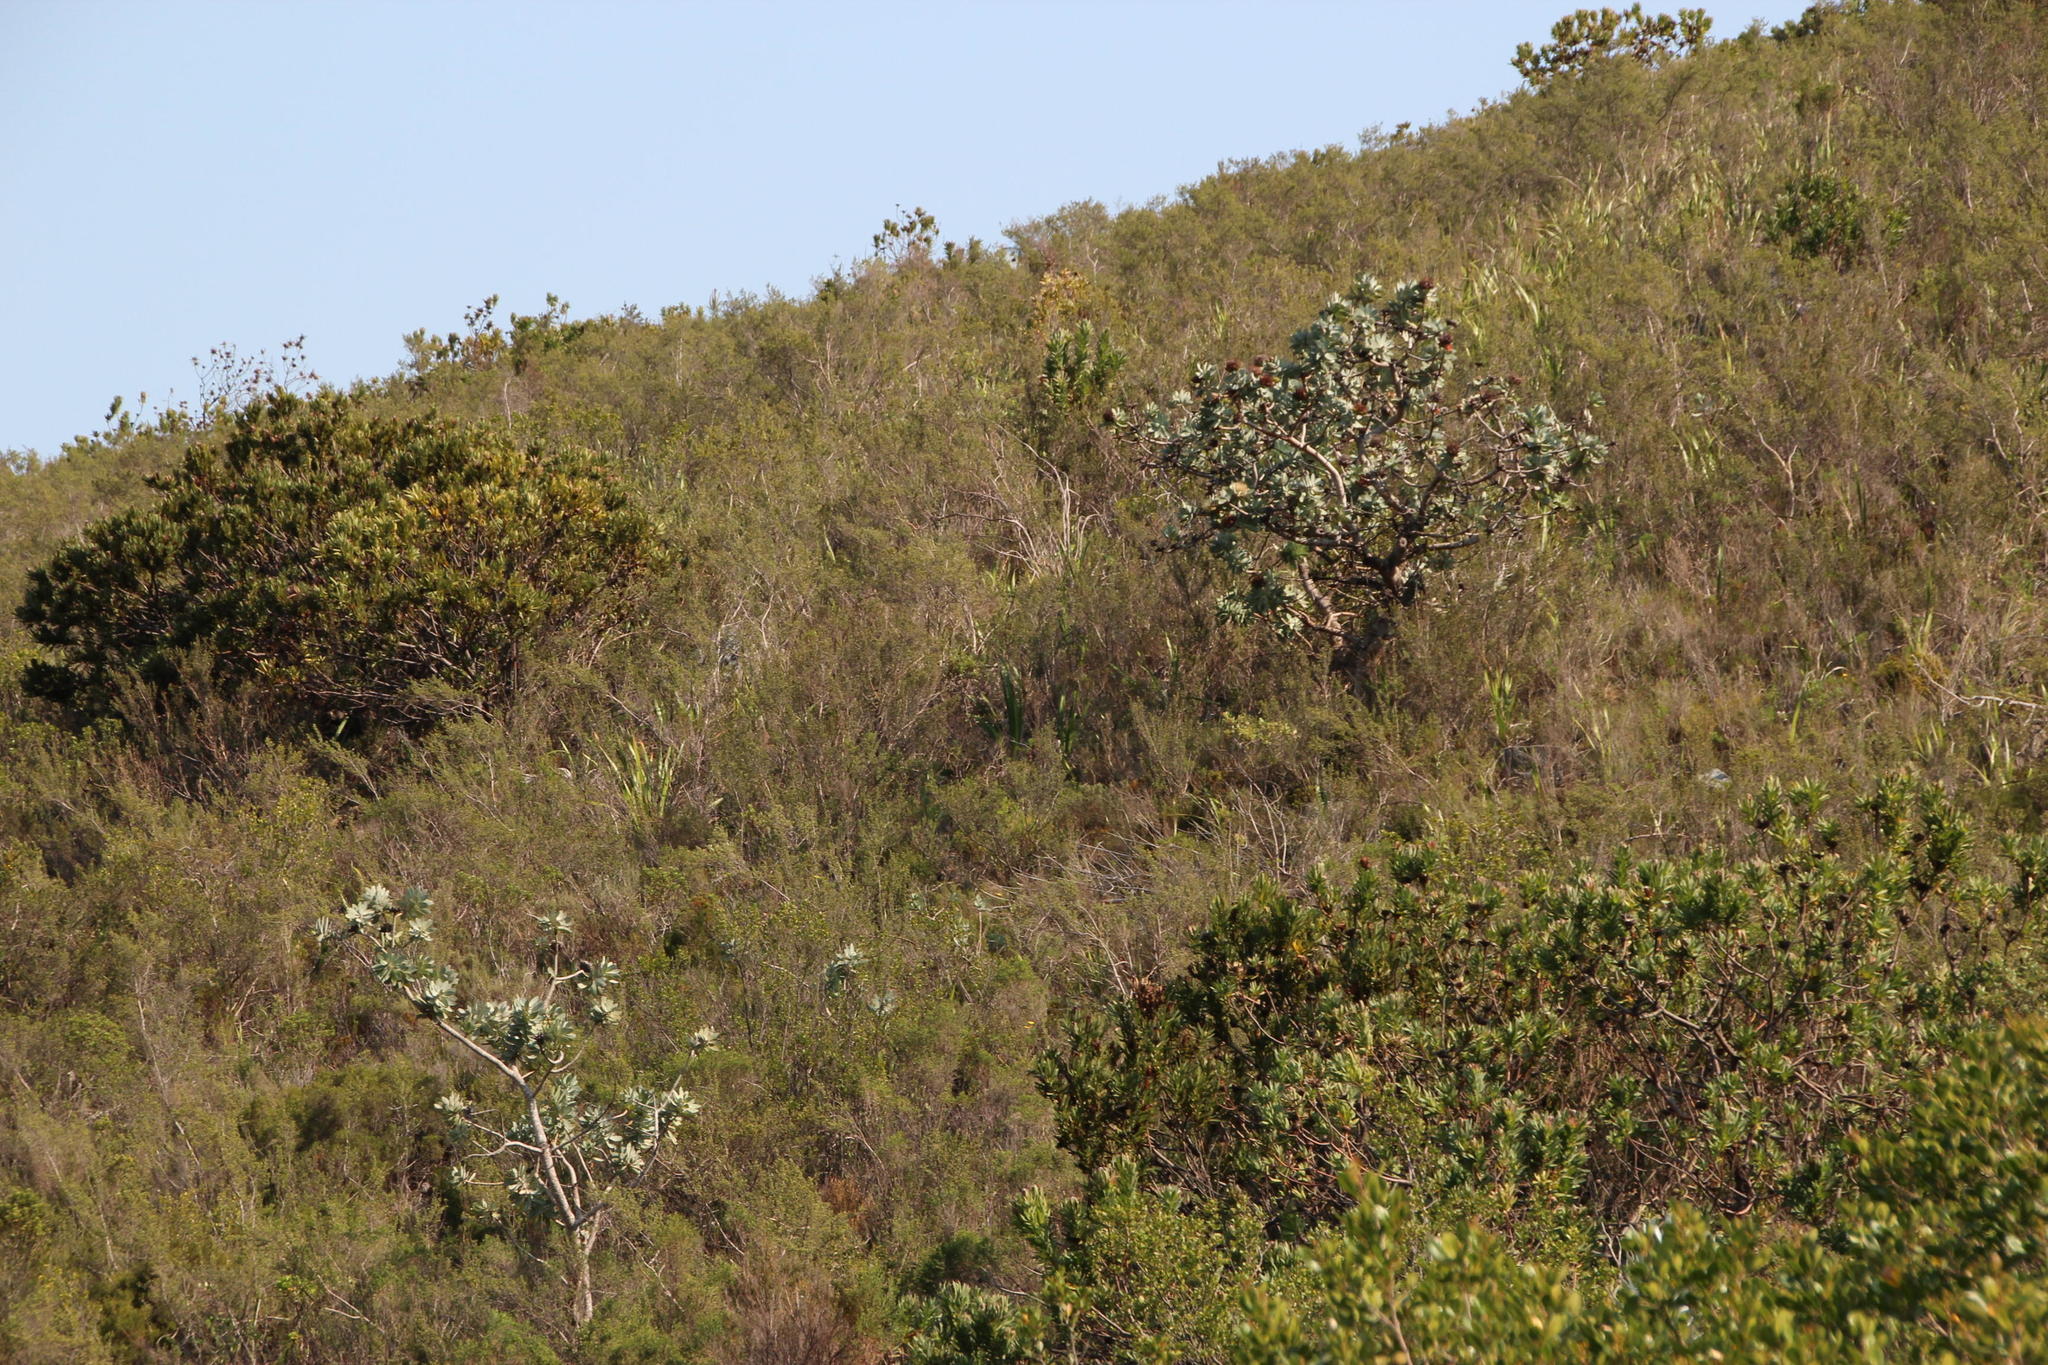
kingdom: Plantae
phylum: Tracheophyta
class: Magnoliopsida
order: Proteales
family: Proteaceae
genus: Protea
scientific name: Protea nitida
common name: Tree protea
